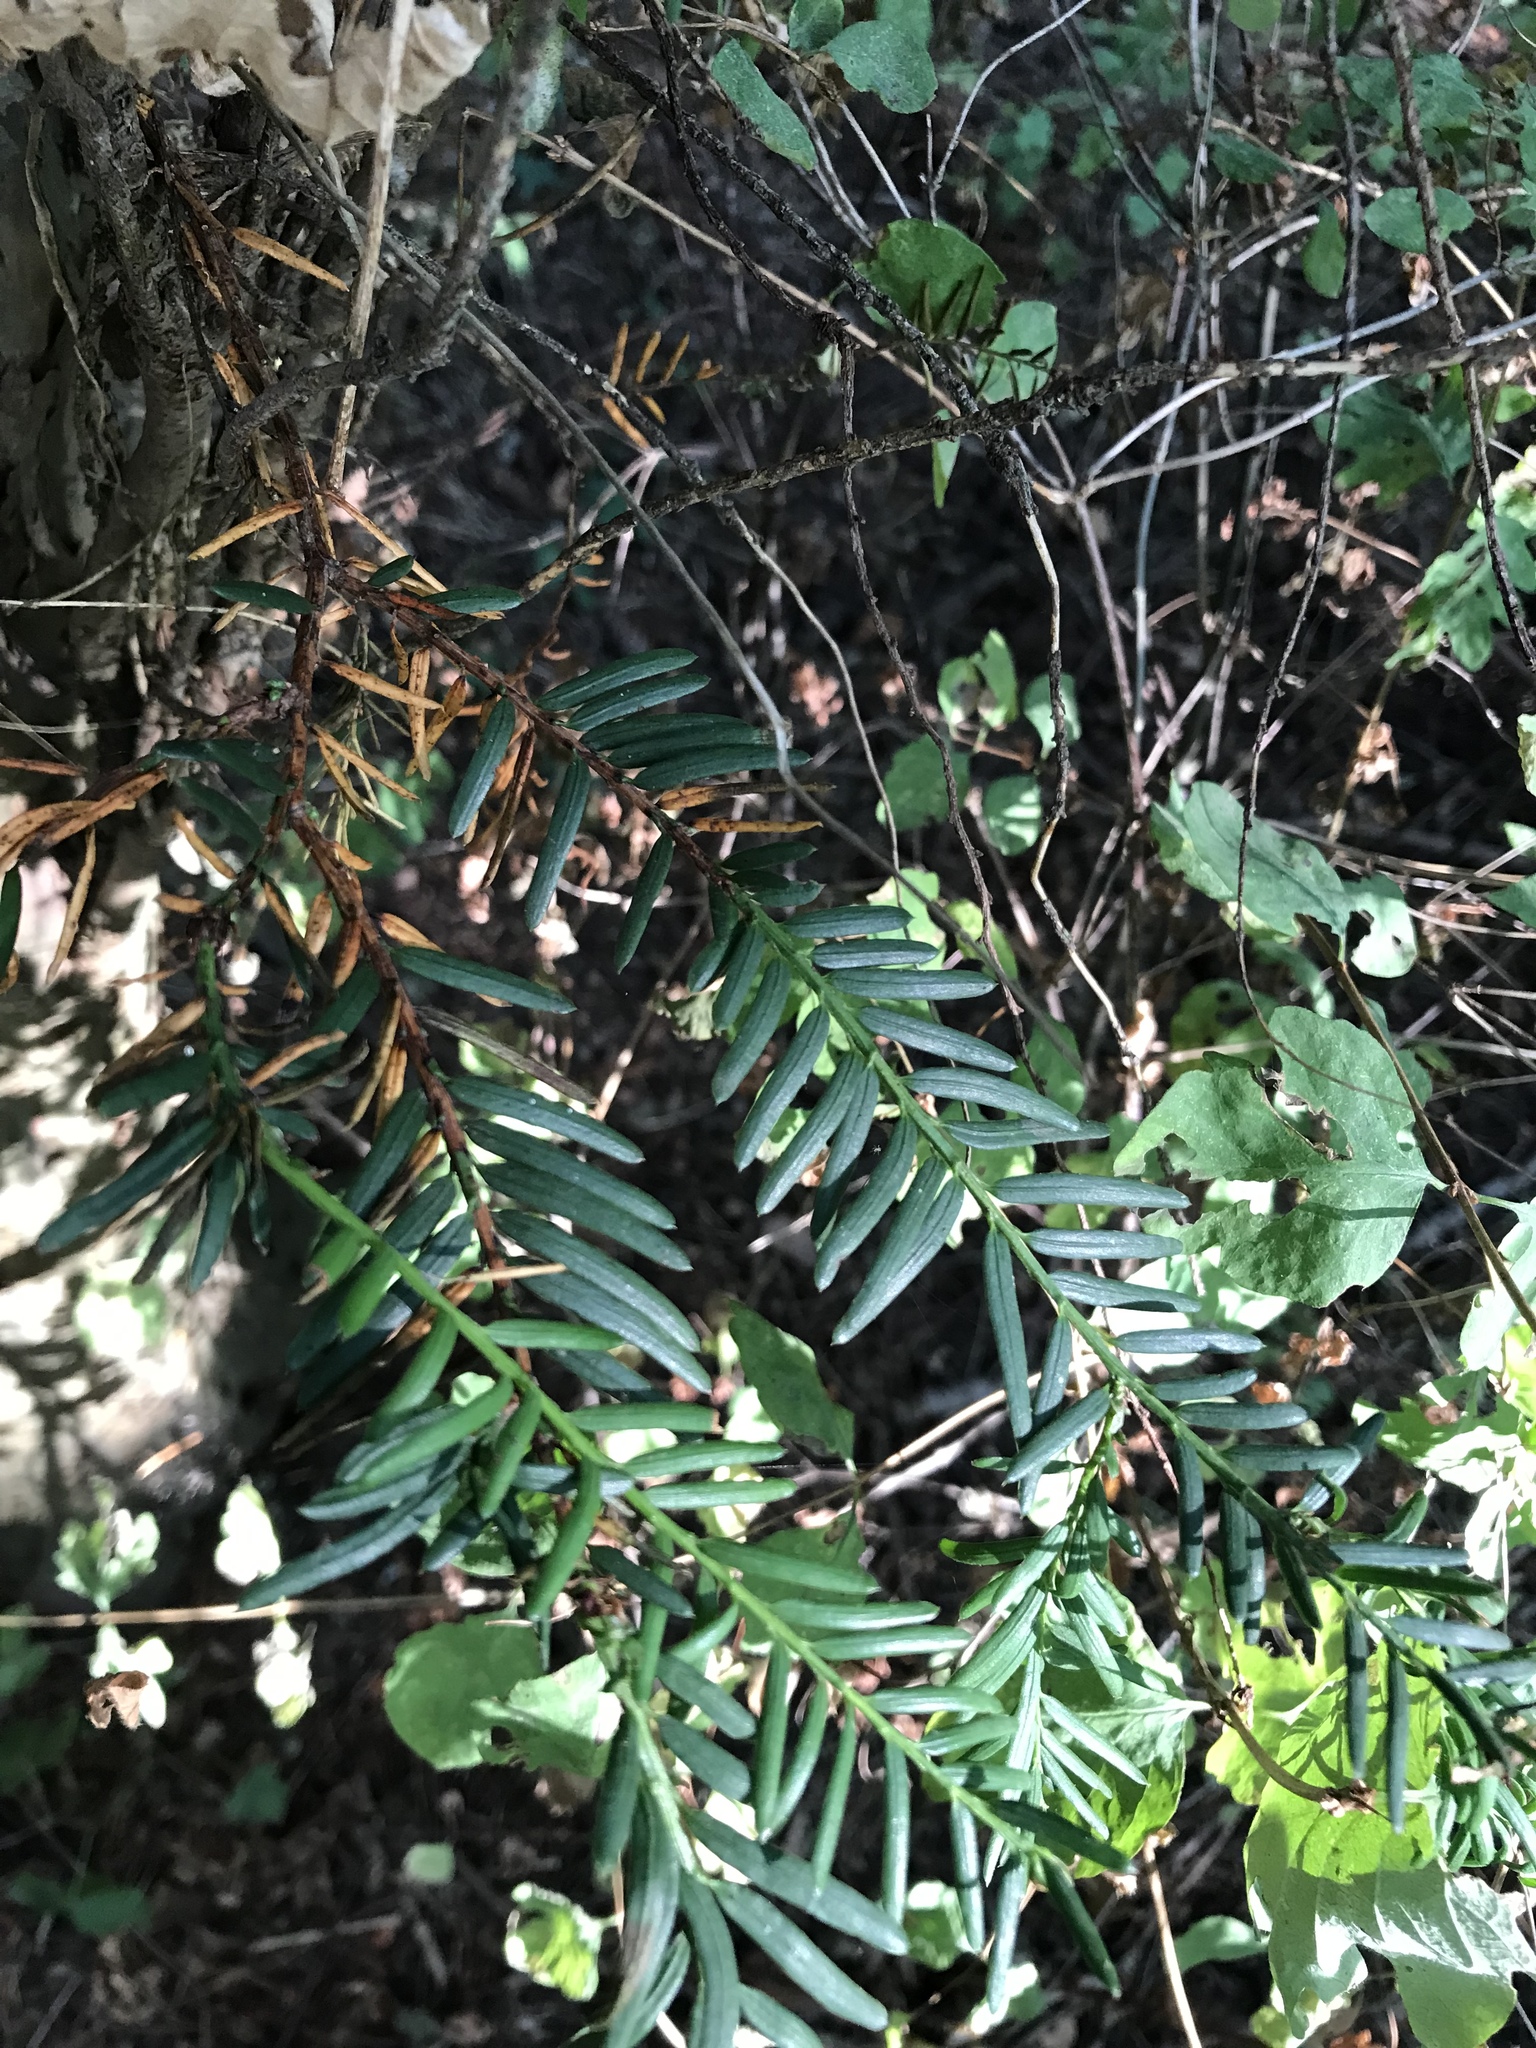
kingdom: Plantae
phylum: Tracheophyta
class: Pinopsida
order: Pinales
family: Taxaceae
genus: Taxus
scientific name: Taxus brevifolia
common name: Pacific yew
